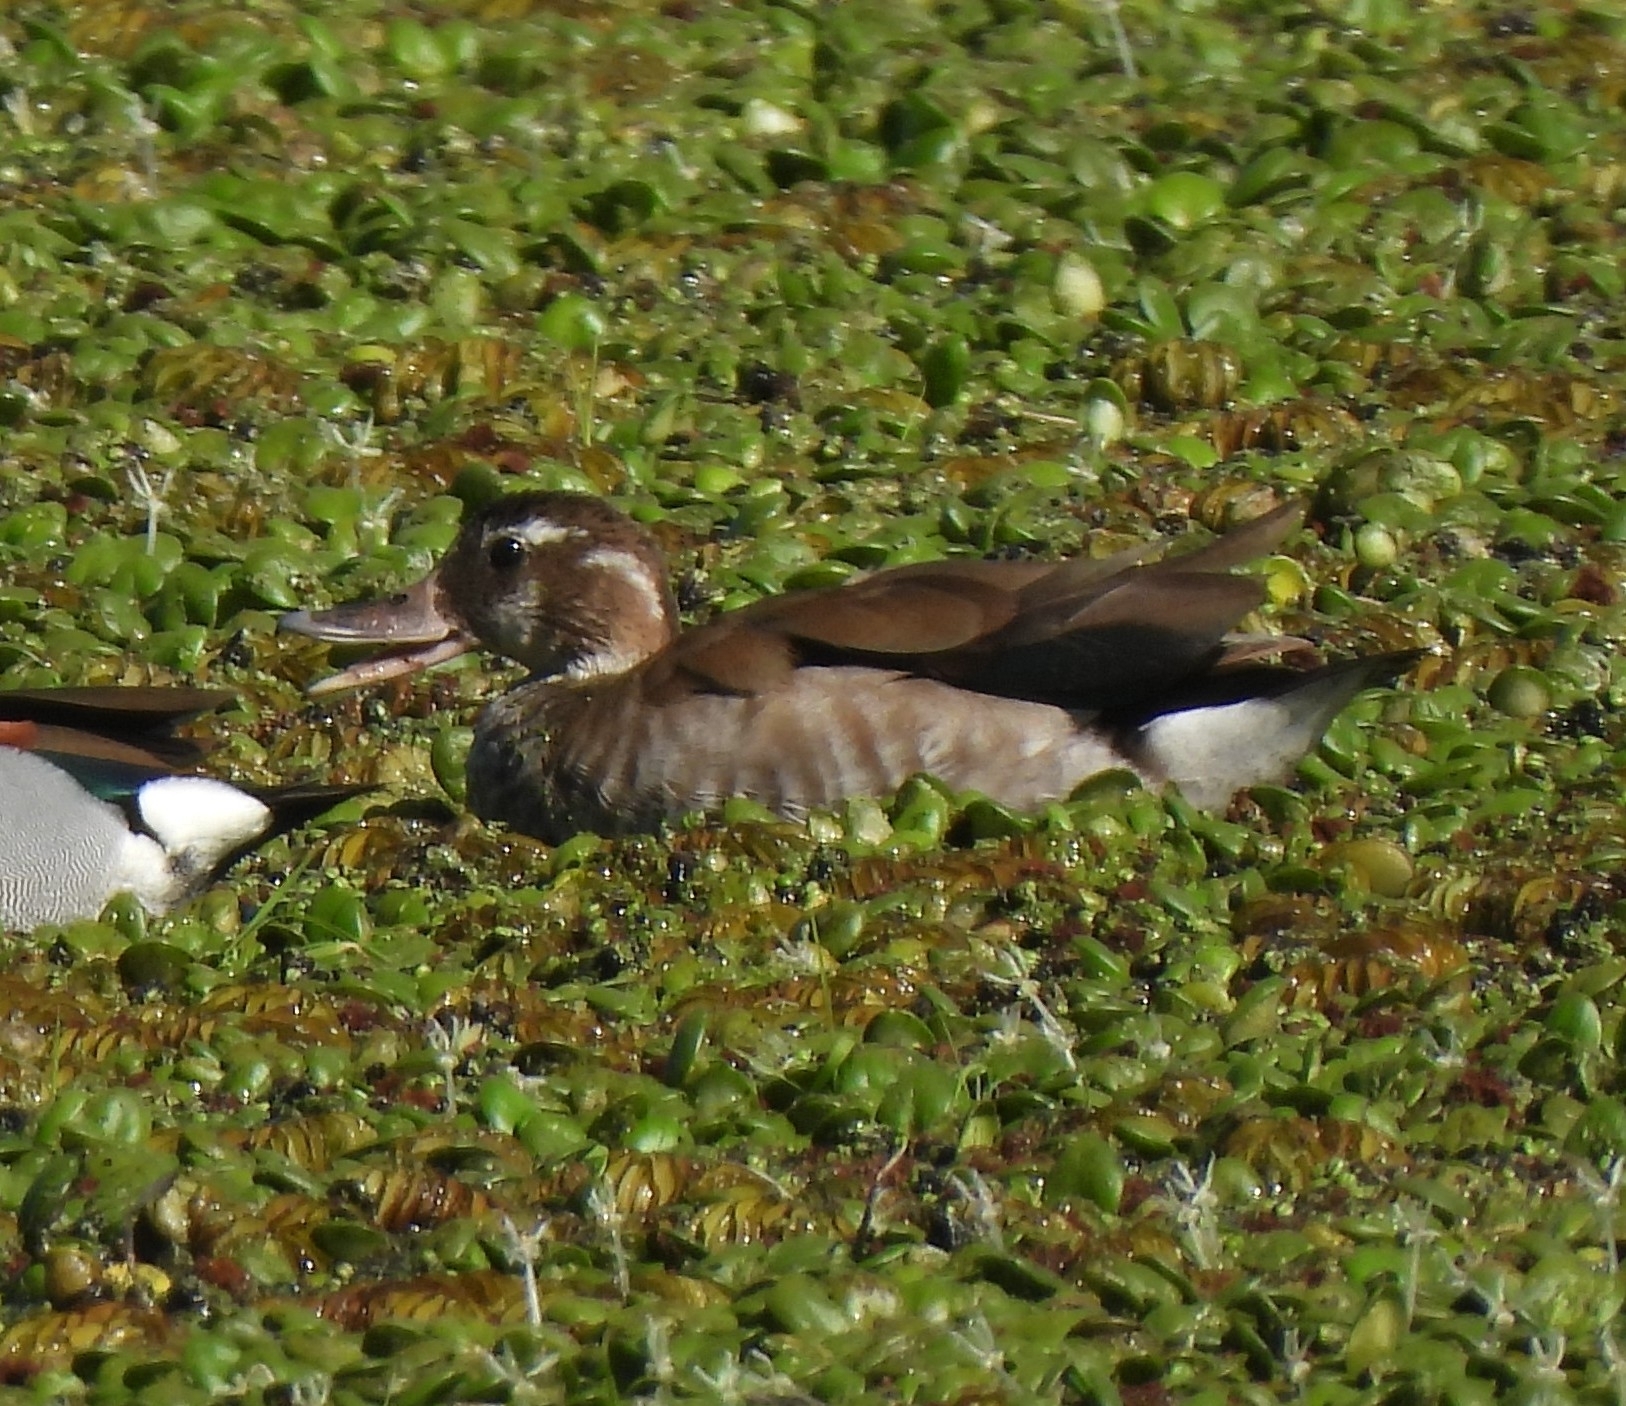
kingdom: Animalia
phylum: Chordata
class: Aves
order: Anseriformes
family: Anatidae
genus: Callonetta
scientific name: Callonetta leucophrys
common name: Ringed teal
